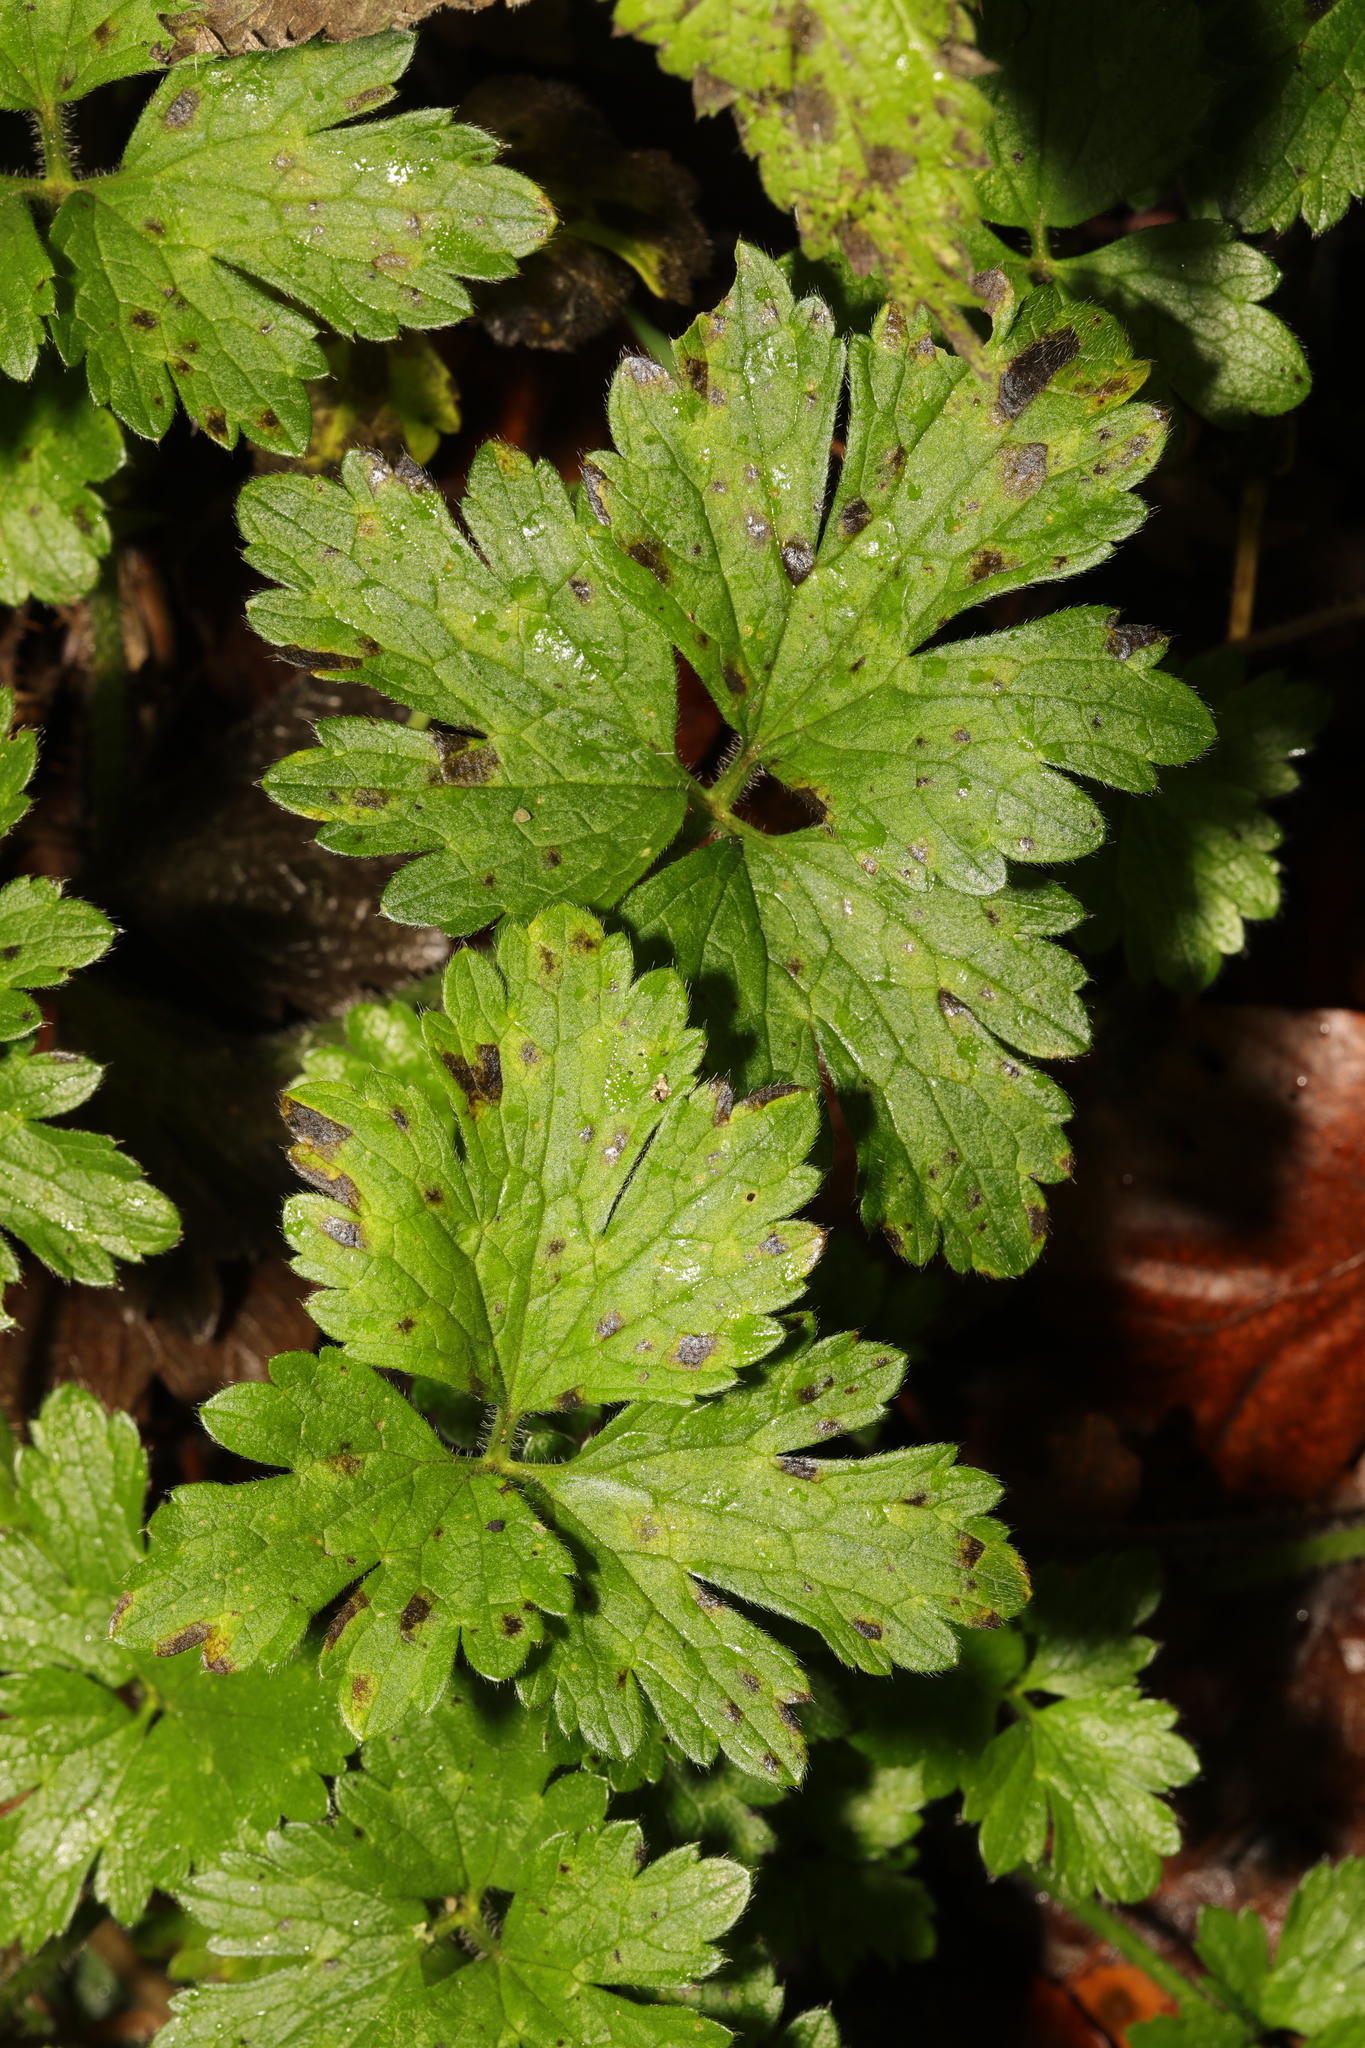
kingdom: Plantae
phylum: Tracheophyta
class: Magnoliopsida
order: Ranunculales
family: Ranunculaceae
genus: Ranunculus
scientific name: Ranunculus repens
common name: Creeping buttercup
